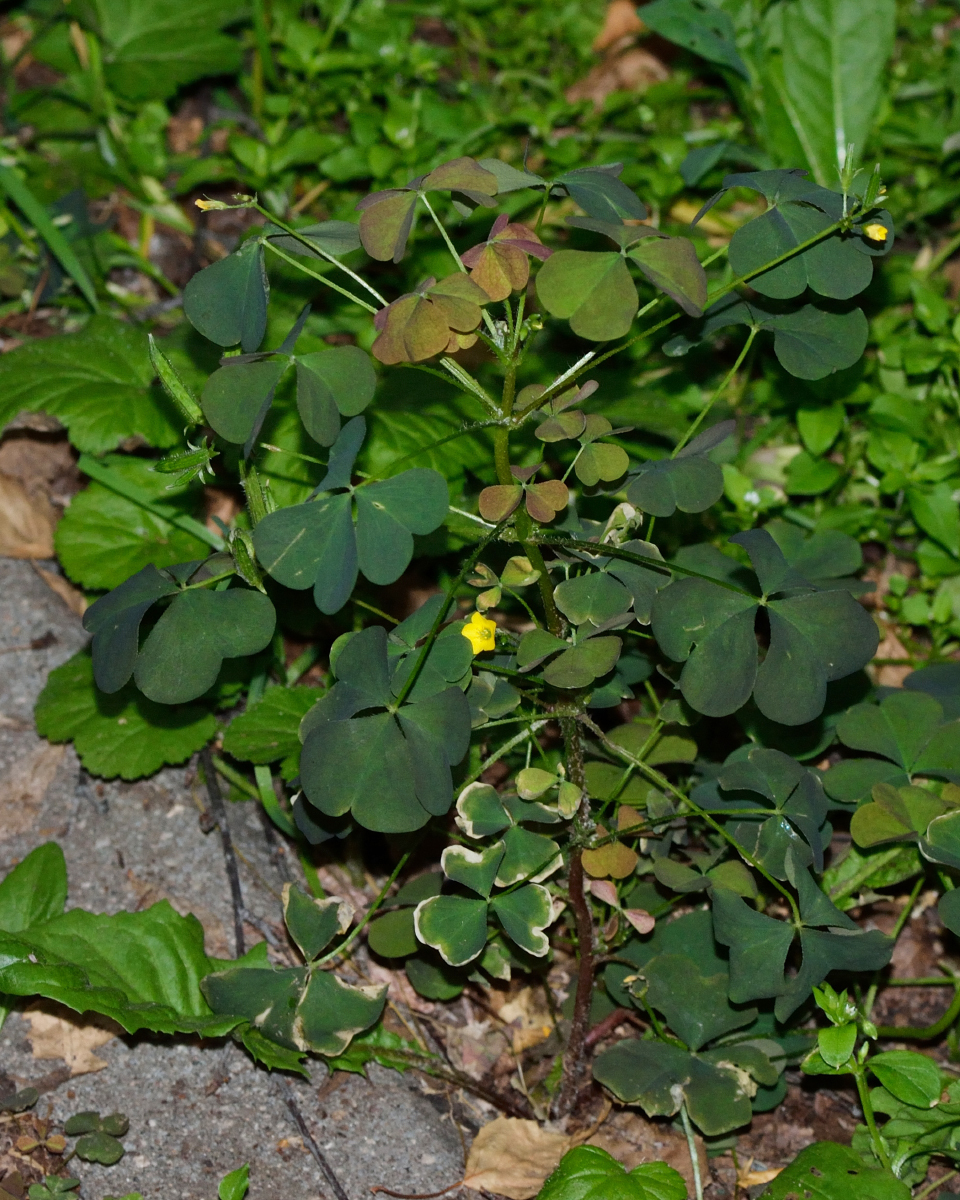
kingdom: Plantae
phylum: Tracheophyta
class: Magnoliopsida
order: Oxalidales
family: Oxalidaceae
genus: Oxalis
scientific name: Oxalis stricta
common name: Upright yellow-sorrel
